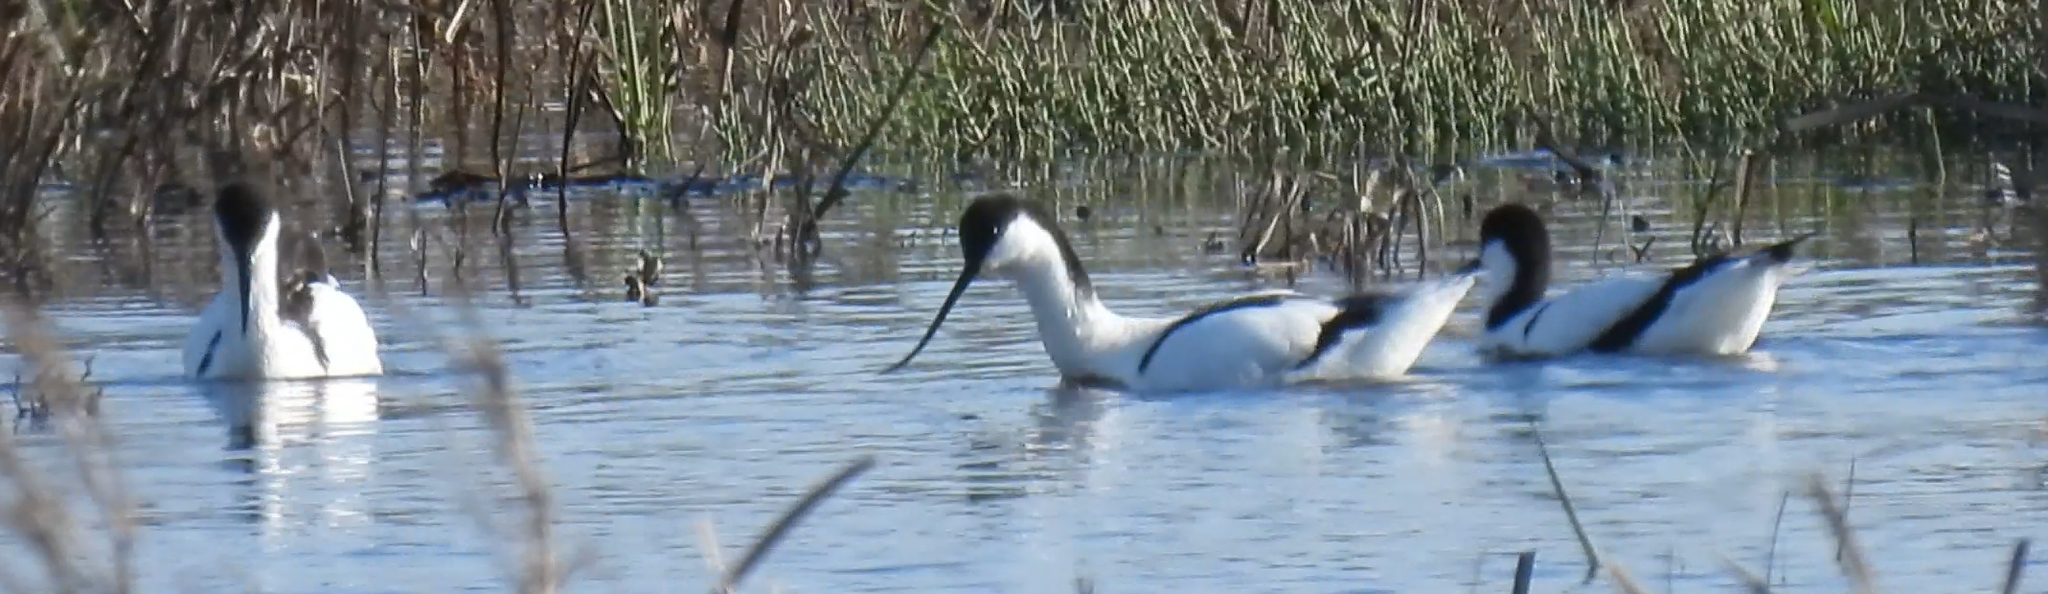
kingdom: Animalia
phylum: Chordata
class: Aves
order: Charadriiformes
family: Recurvirostridae
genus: Recurvirostra
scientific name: Recurvirostra avosetta
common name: Pied avocet
